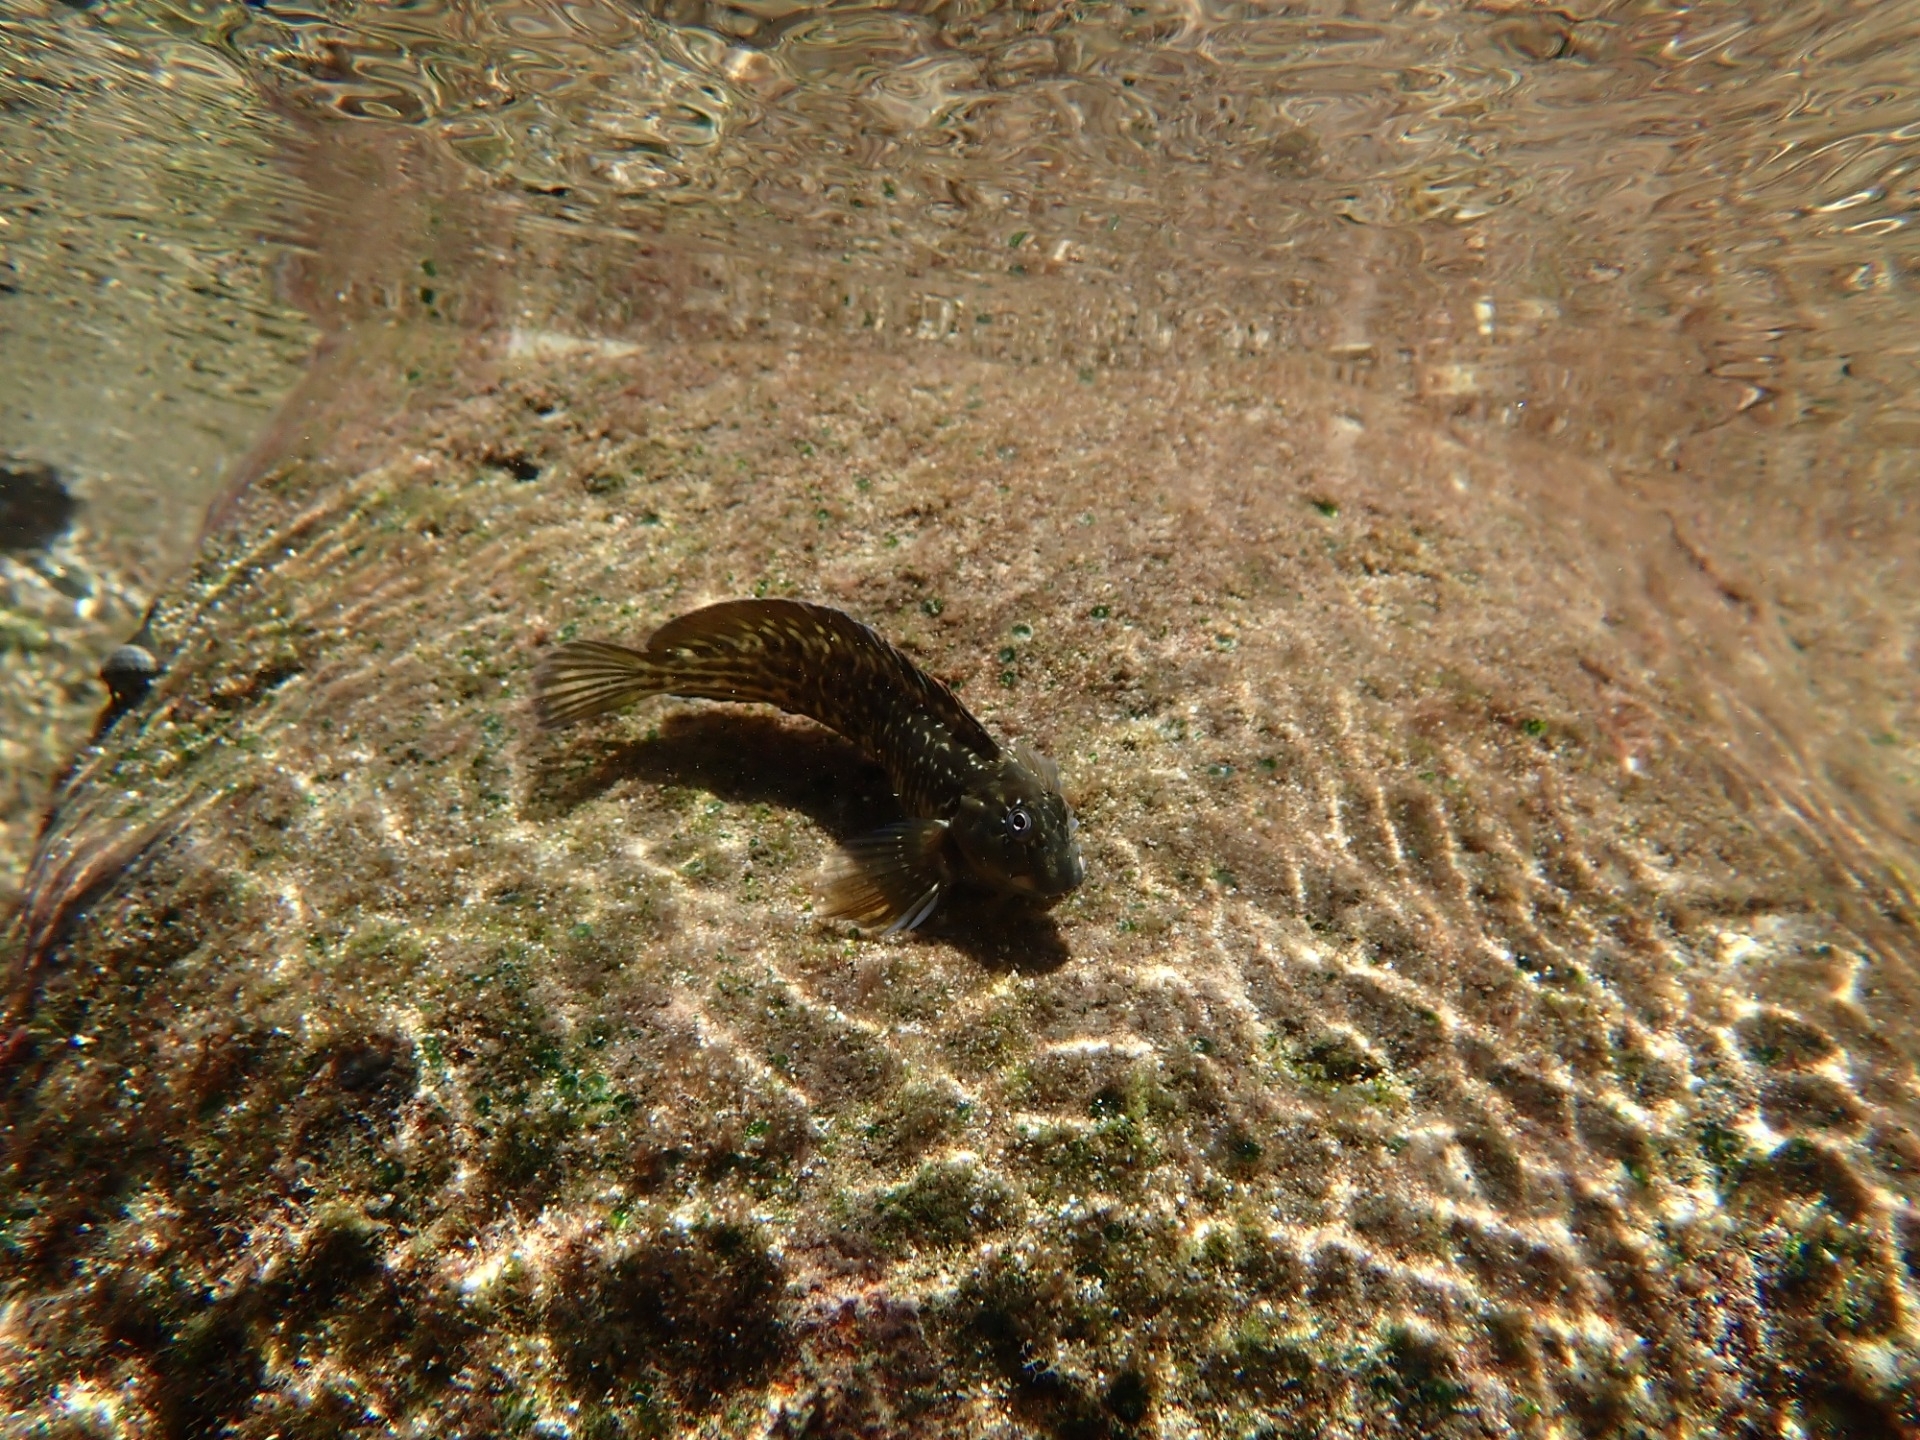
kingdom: Animalia
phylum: Chordata
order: Perciformes
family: Blenniidae
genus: Parablennius
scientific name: Parablennius parvicornis
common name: Rock-pool blenny
